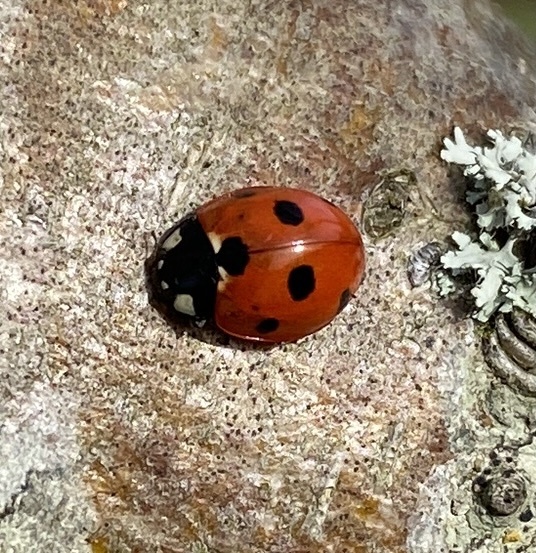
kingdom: Animalia
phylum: Arthropoda
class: Insecta
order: Coleoptera
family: Coccinellidae
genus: Coccinella
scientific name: Coccinella septempunctata
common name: Sevenspotted lady beetle
